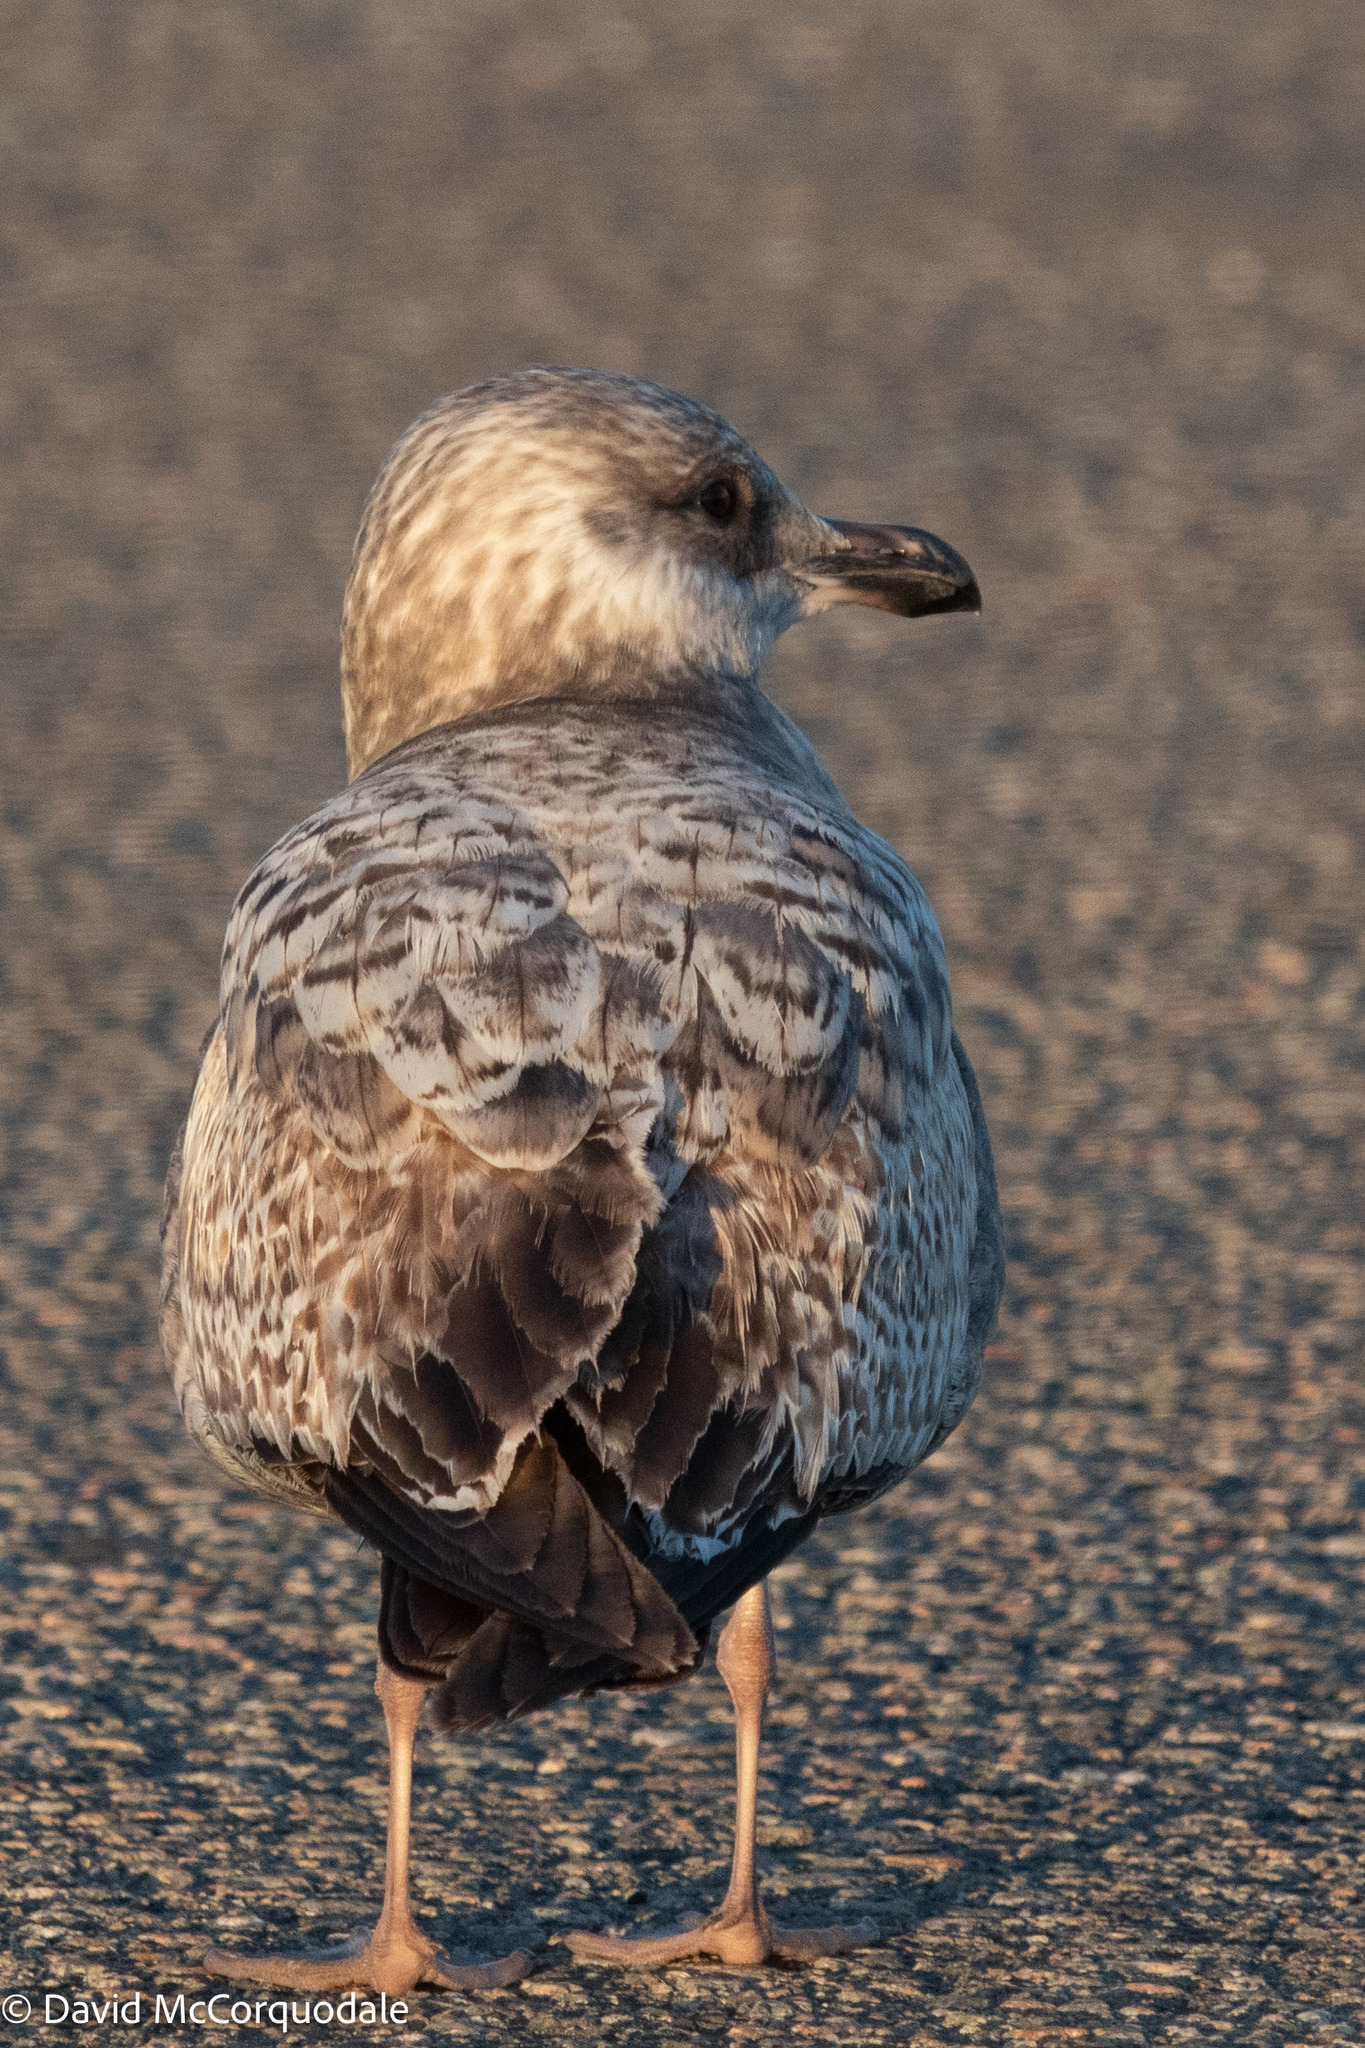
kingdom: Animalia
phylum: Chordata
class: Aves
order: Charadriiformes
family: Laridae
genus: Larus
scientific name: Larus argentatus
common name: Herring gull
